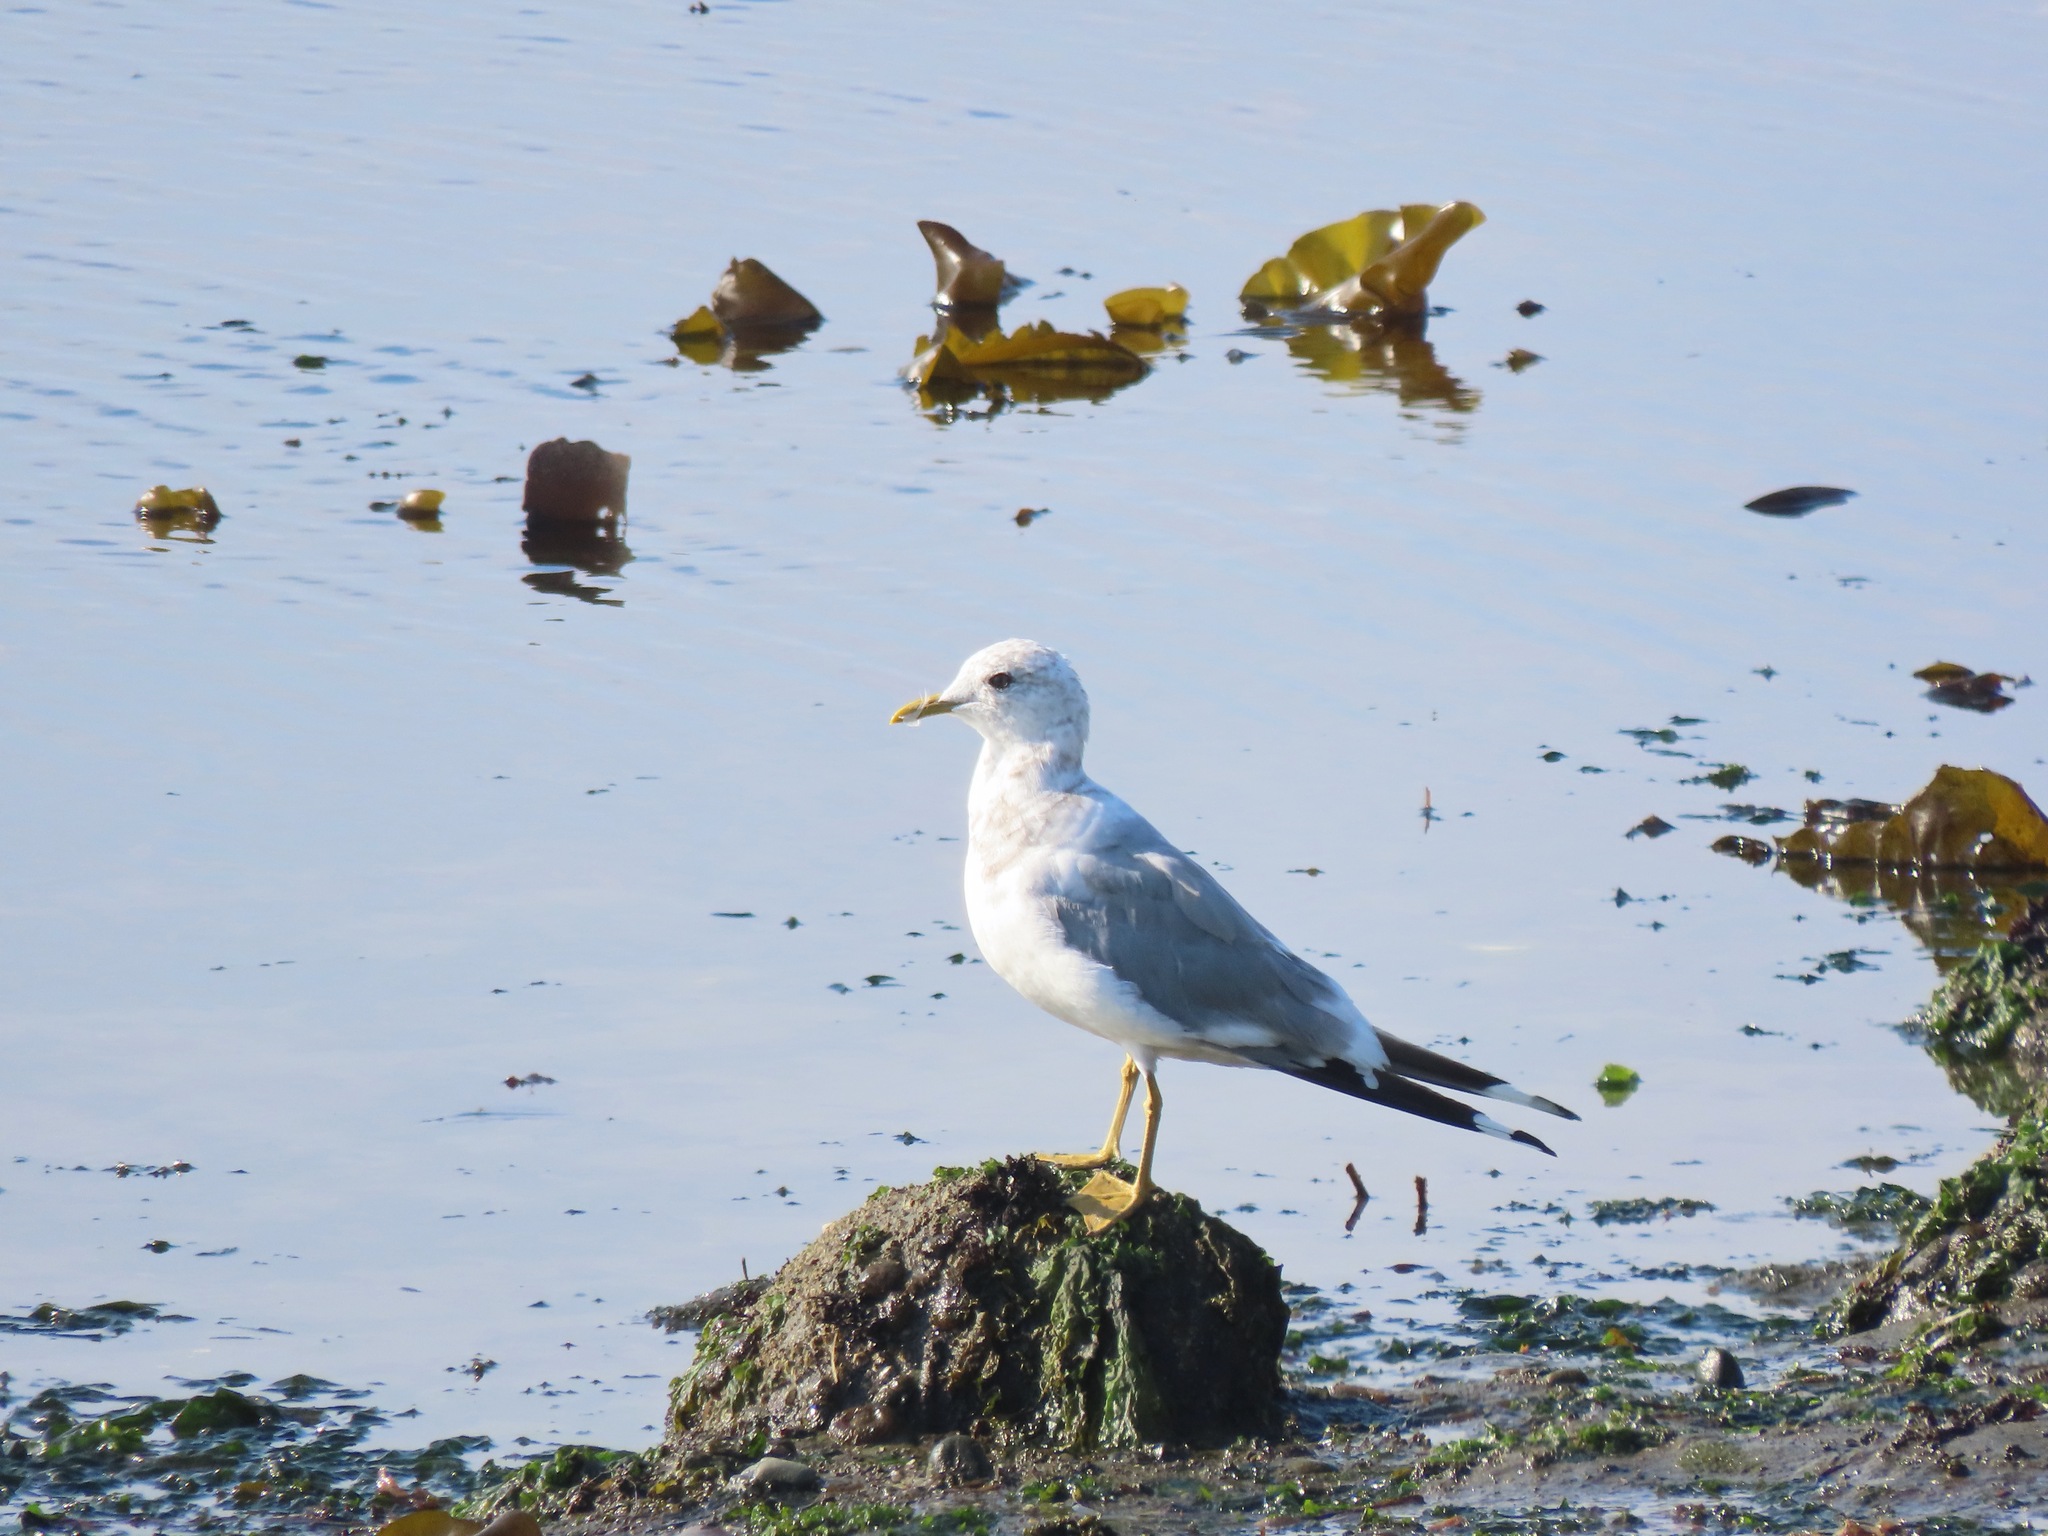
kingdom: Animalia
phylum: Chordata
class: Aves
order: Charadriiformes
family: Laridae
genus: Larus
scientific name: Larus brachyrhynchus
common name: Short-billed gull
